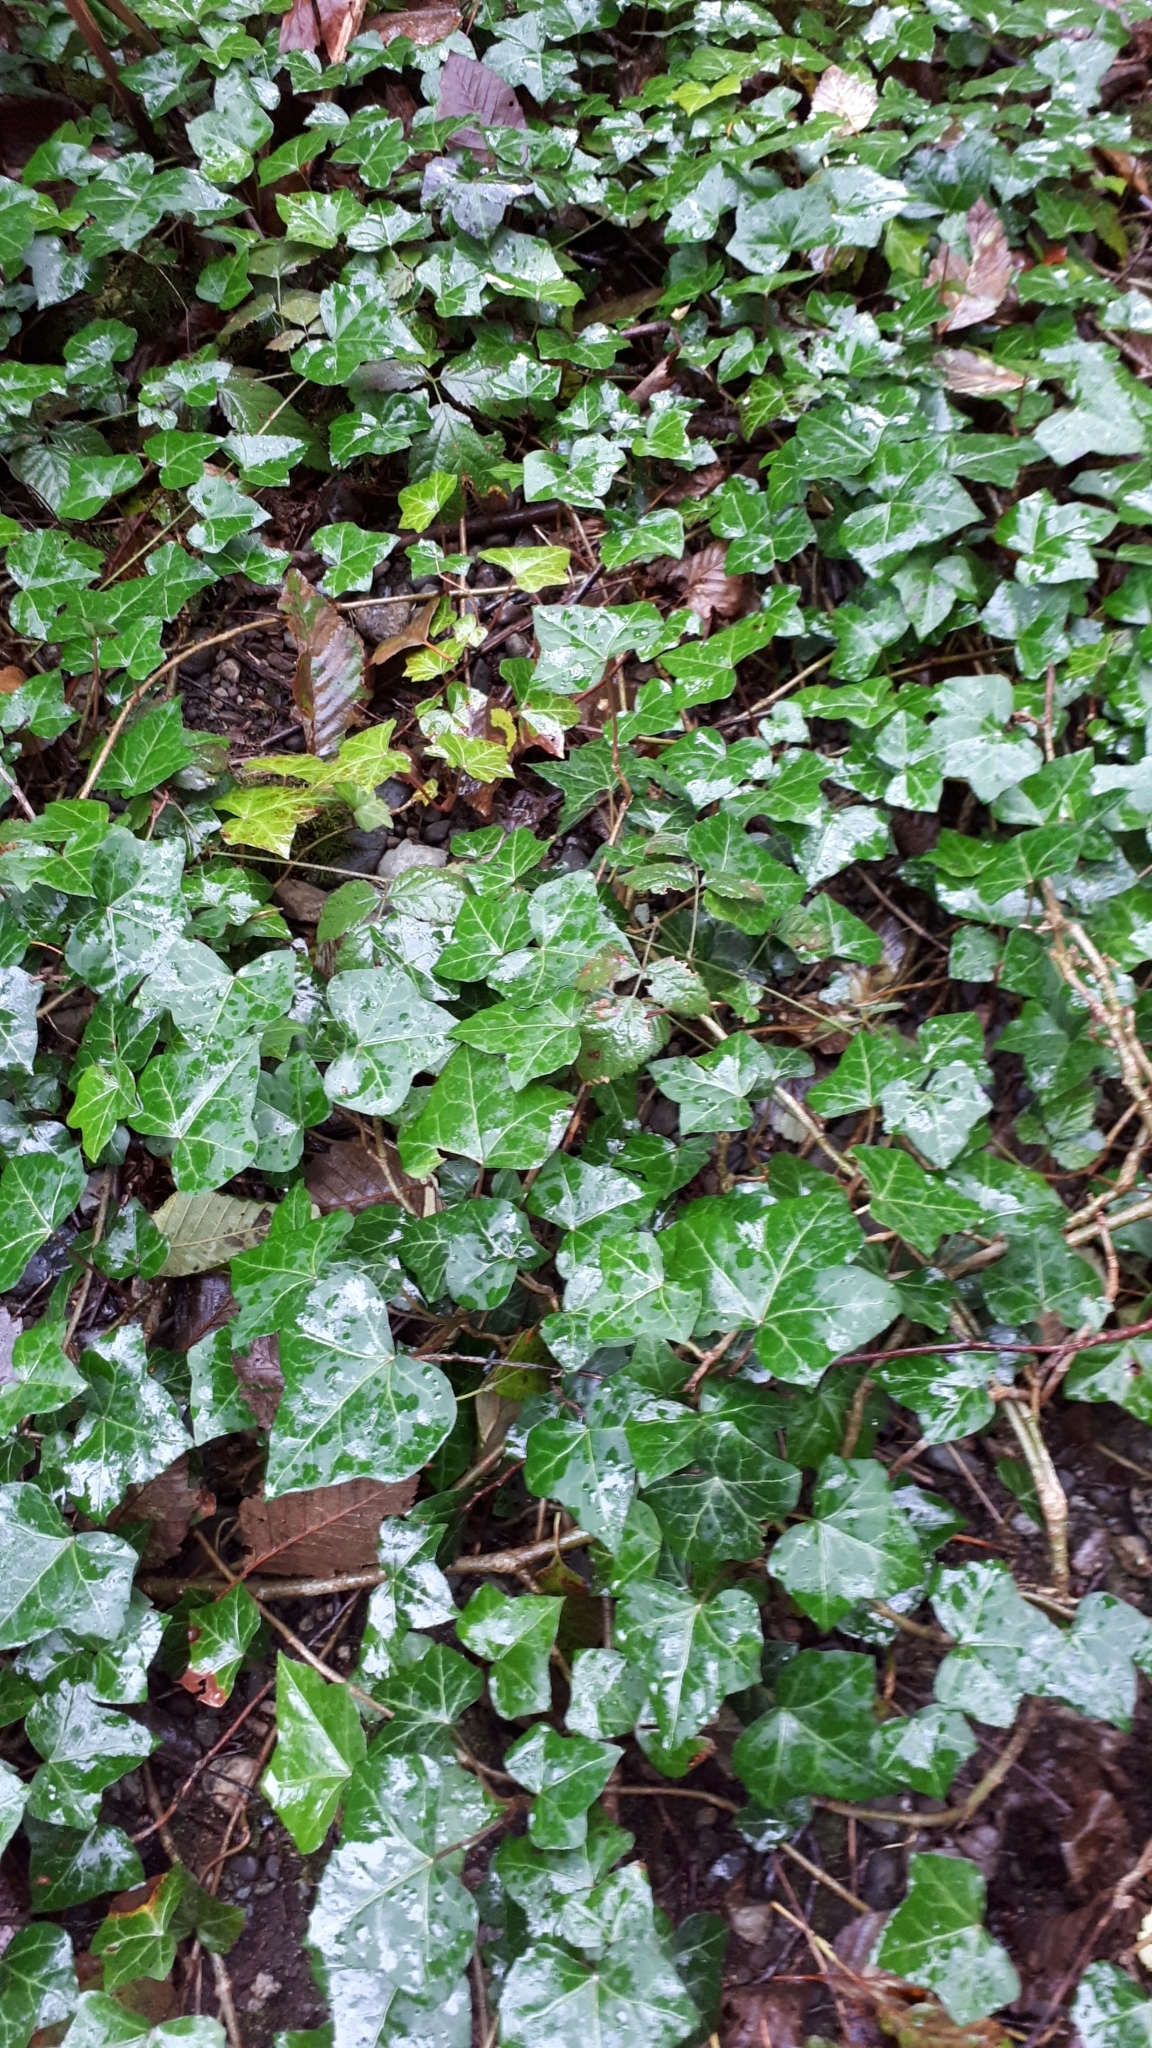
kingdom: Plantae
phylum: Tracheophyta
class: Magnoliopsida
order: Apiales
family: Araliaceae
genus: Hedera
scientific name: Hedera helix
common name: Ivy
